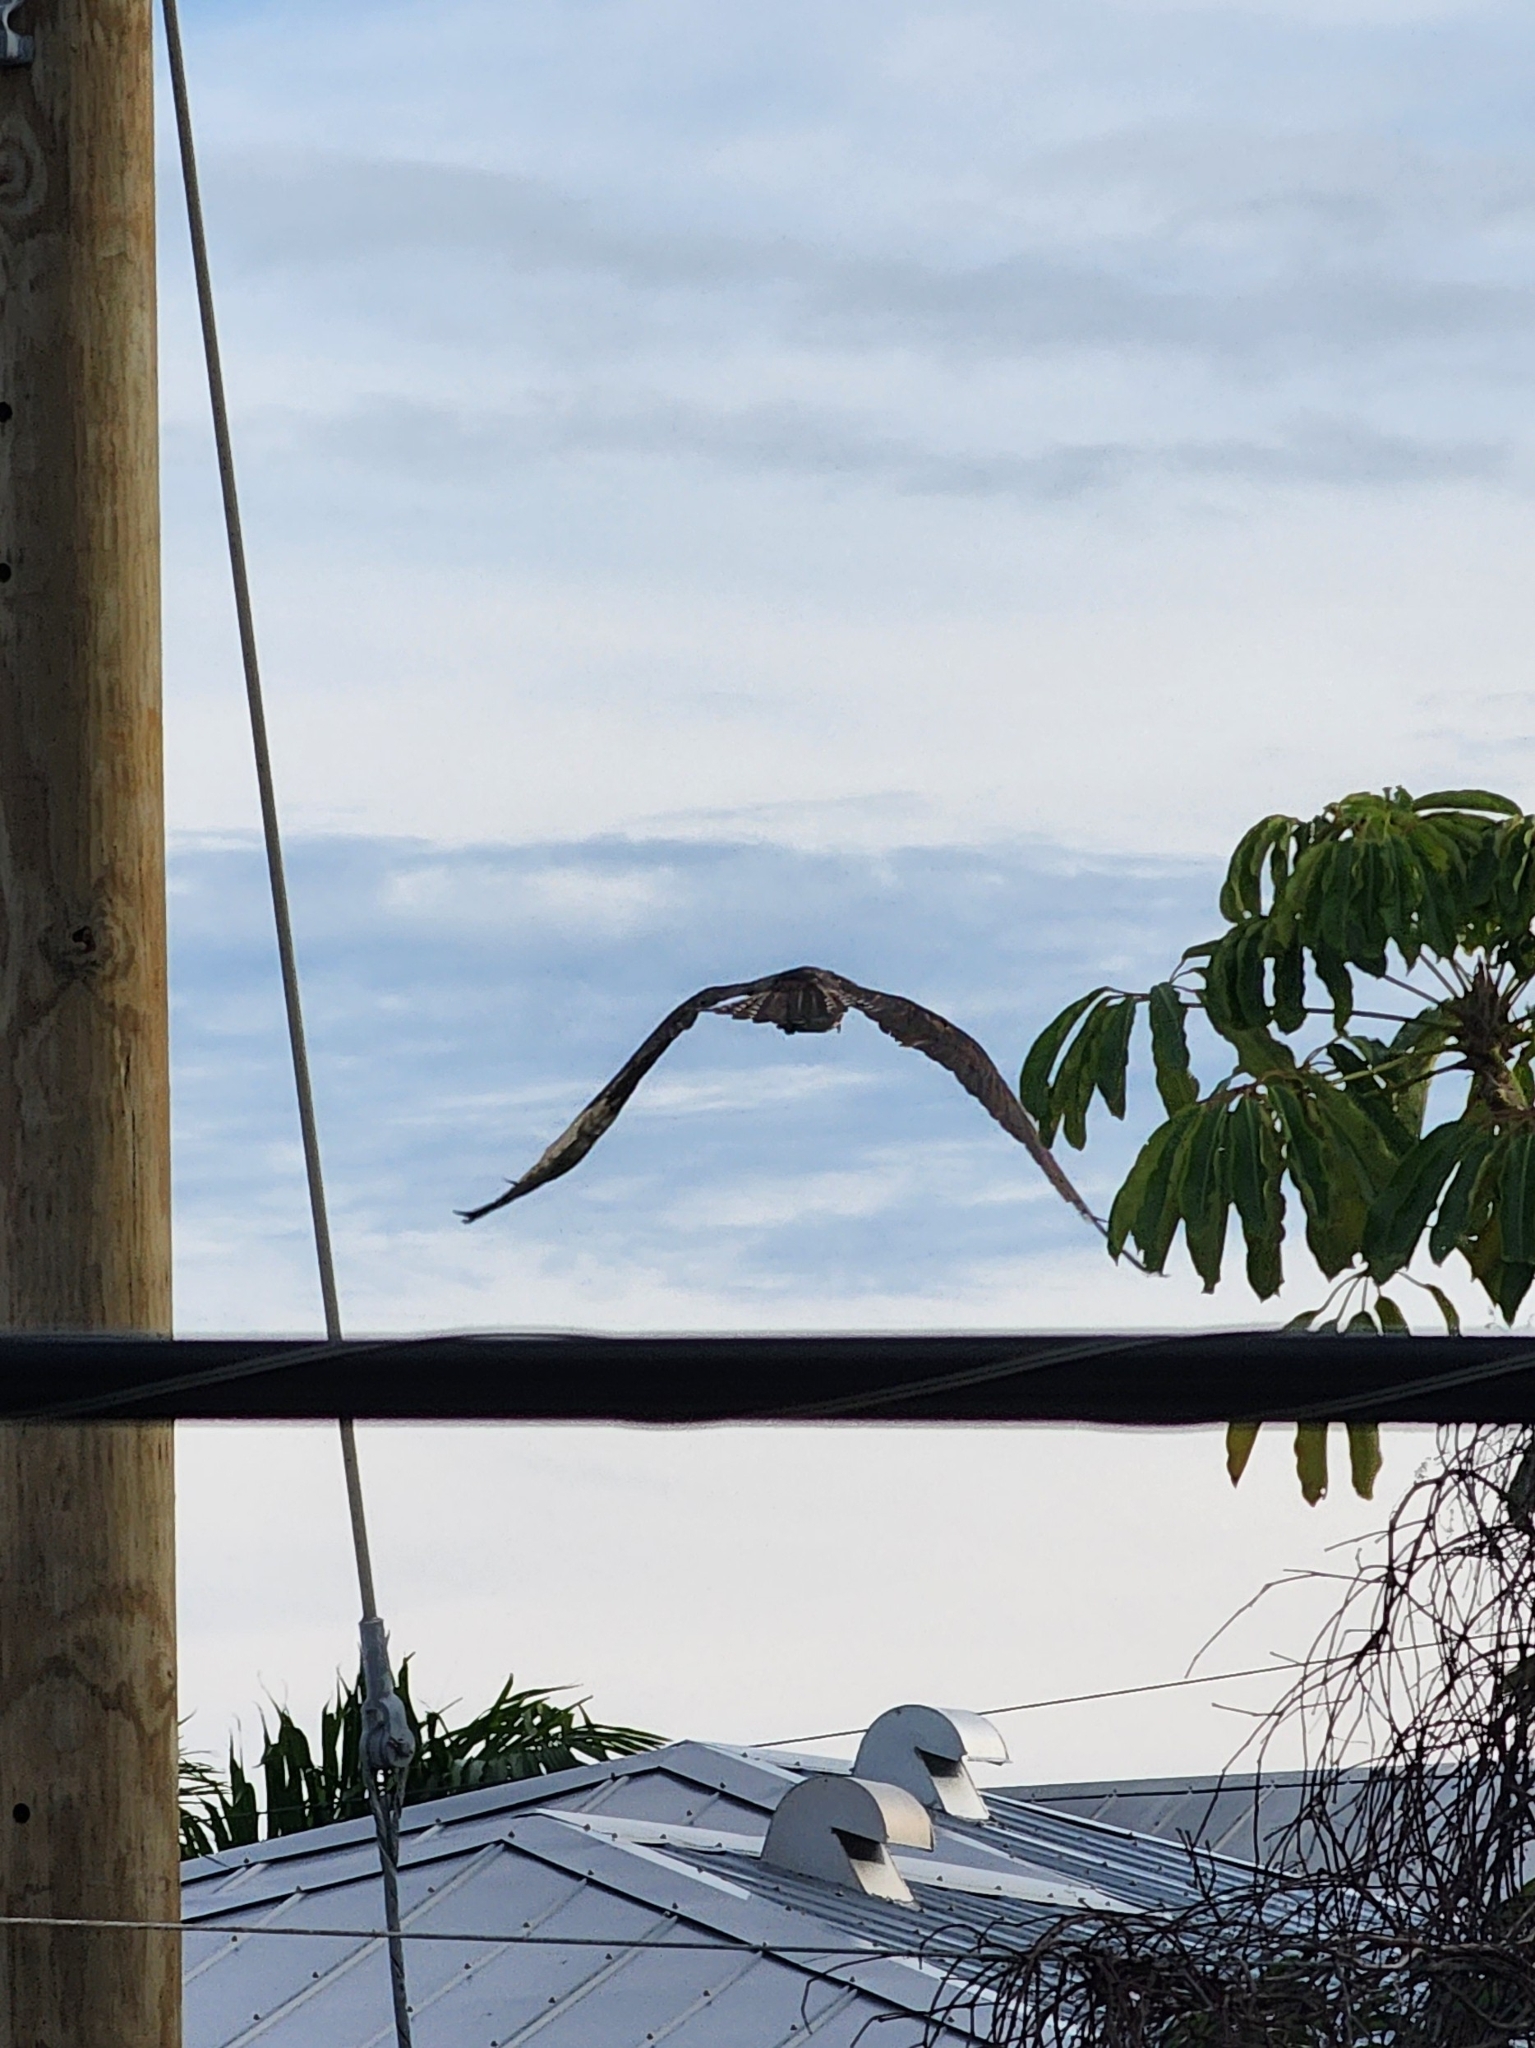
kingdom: Animalia
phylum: Chordata
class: Aves
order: Accipitriformes
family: Pandionidae
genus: Pandion
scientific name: Pandion haliaetus
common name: Osprey
